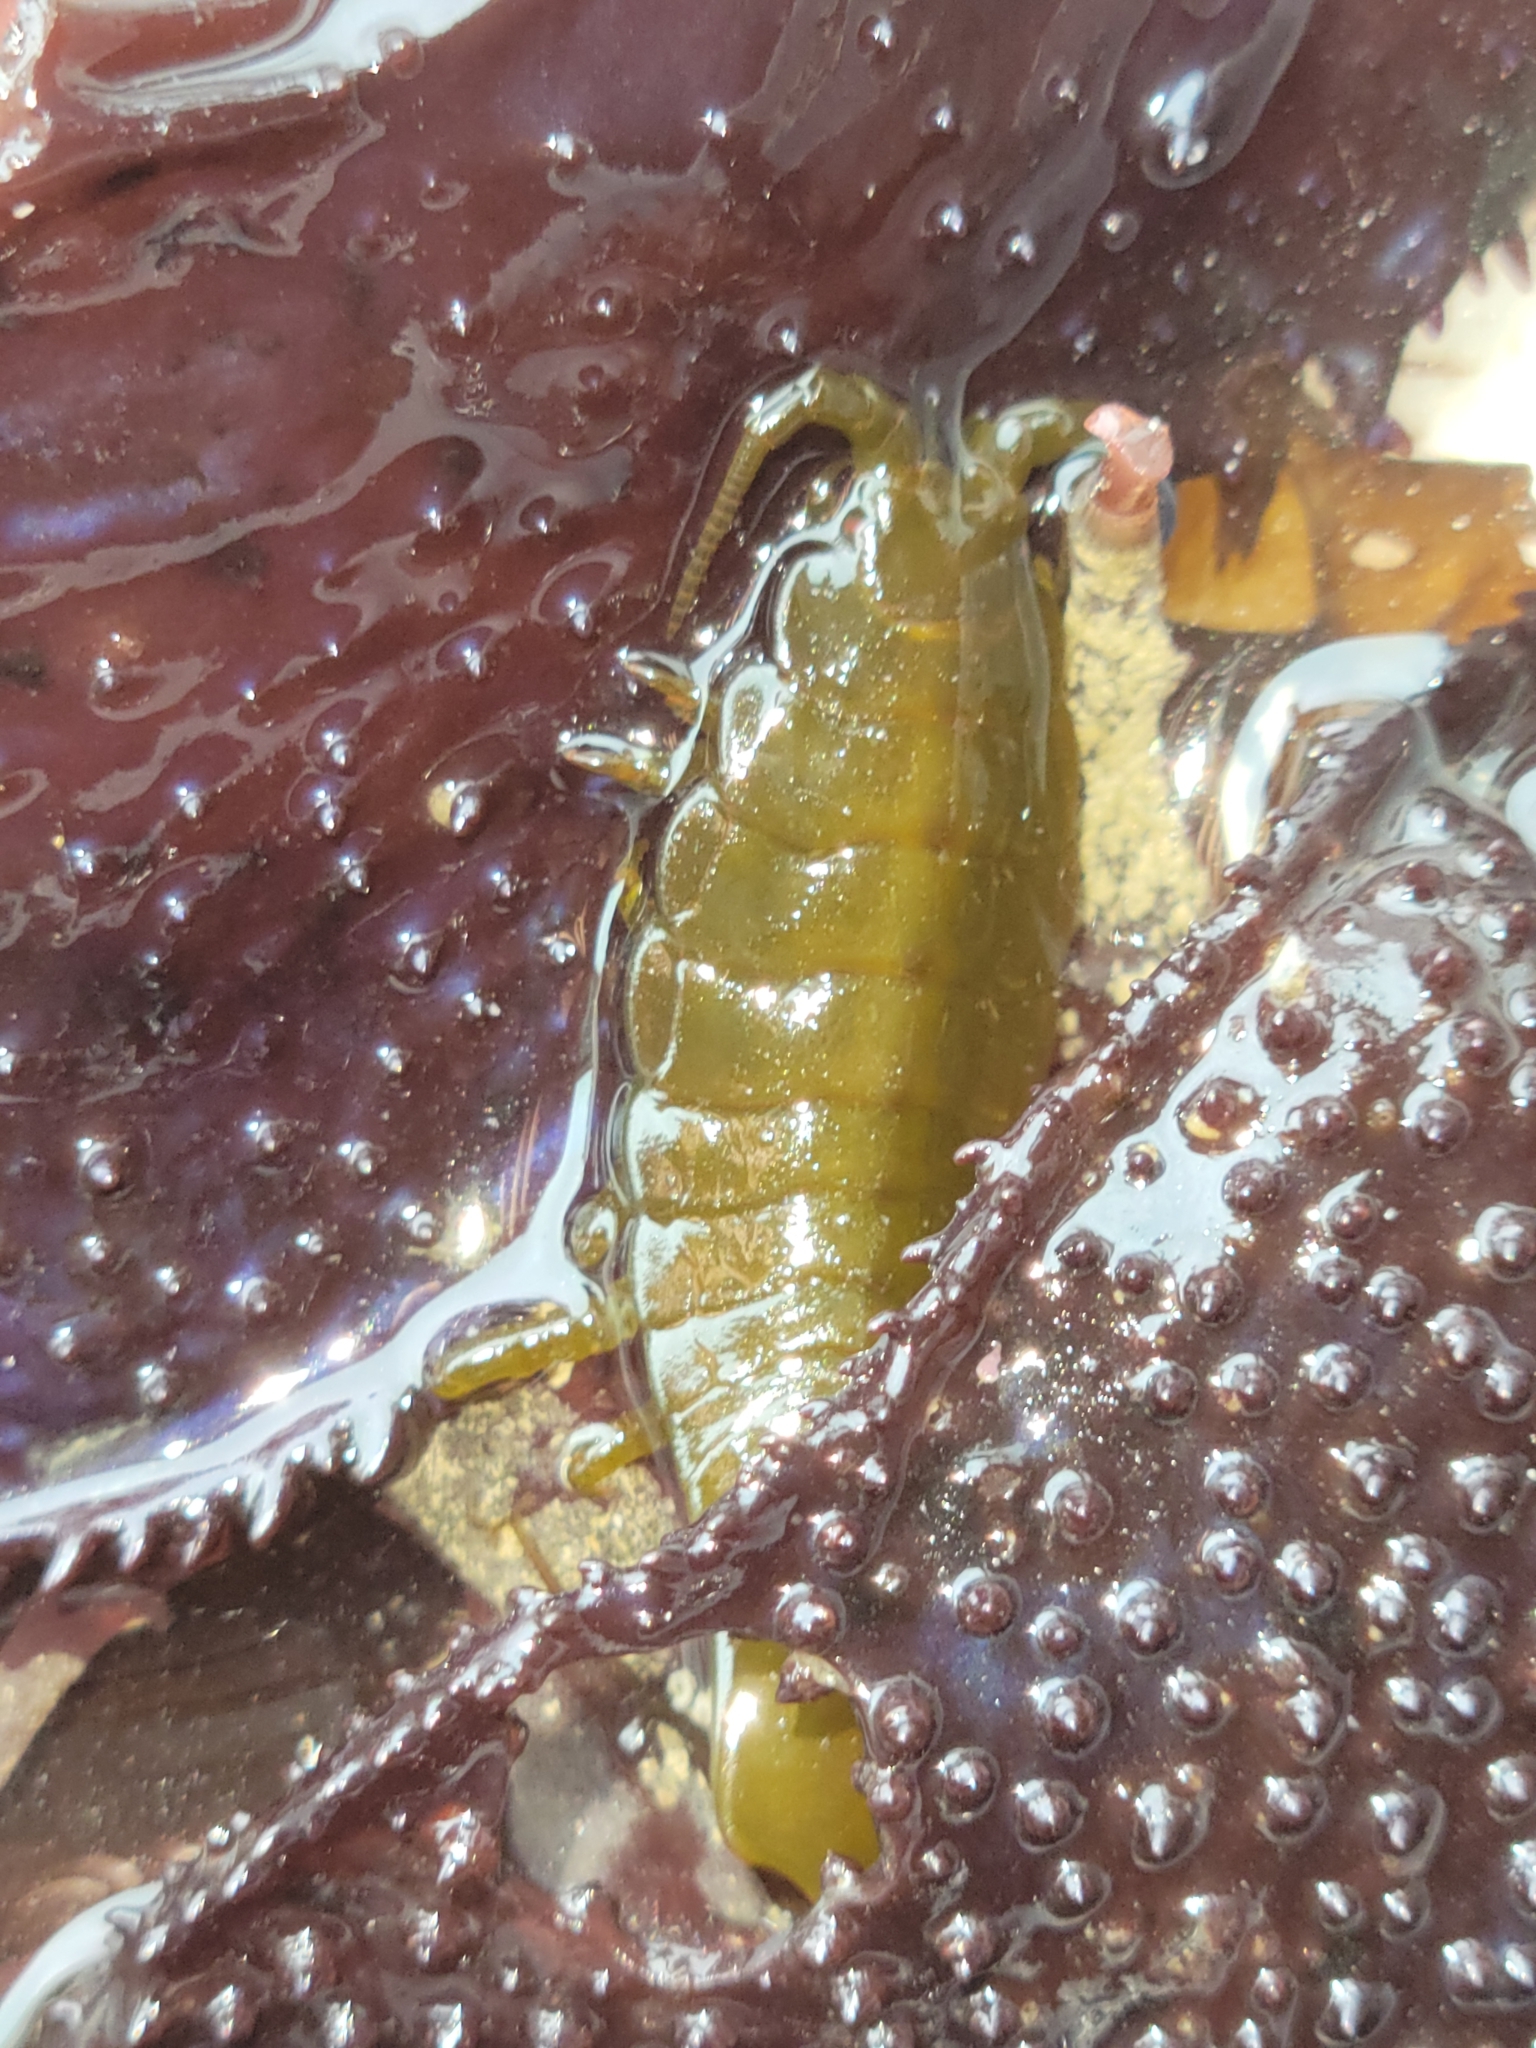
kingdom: Animalia
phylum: Arthropoda
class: Malacostraca
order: Isopoda
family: Idoteidae
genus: Pentidotea
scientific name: Pentidotea stenops
